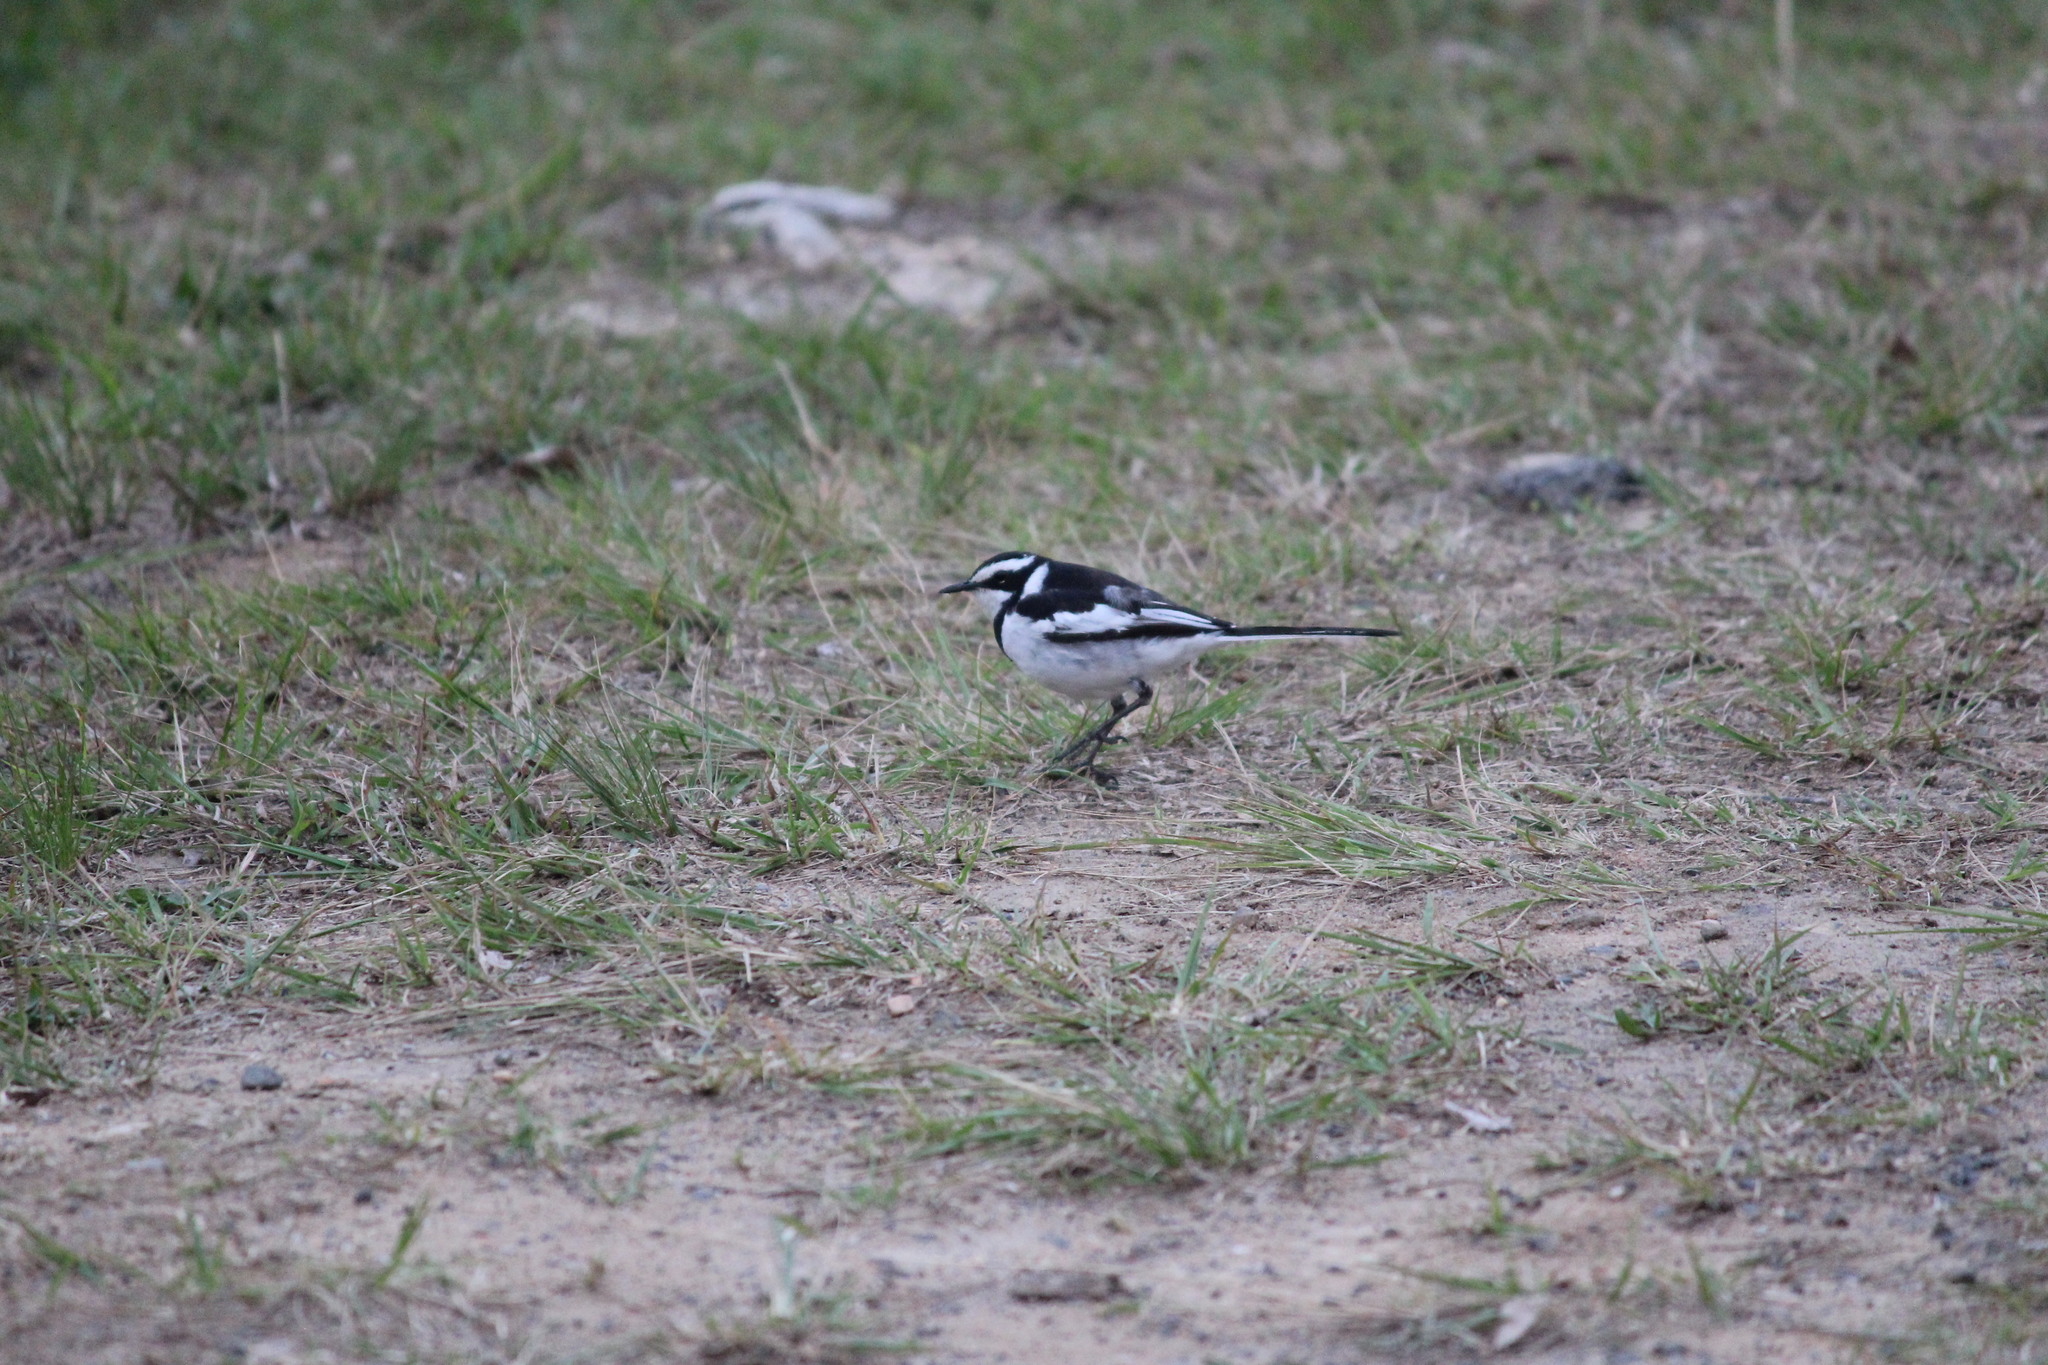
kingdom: Animalia
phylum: Chordata
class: Aves
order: Passeriformes
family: Motacillidae
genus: Motacilla
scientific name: Motacilla aguimp
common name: African pied wagtail
